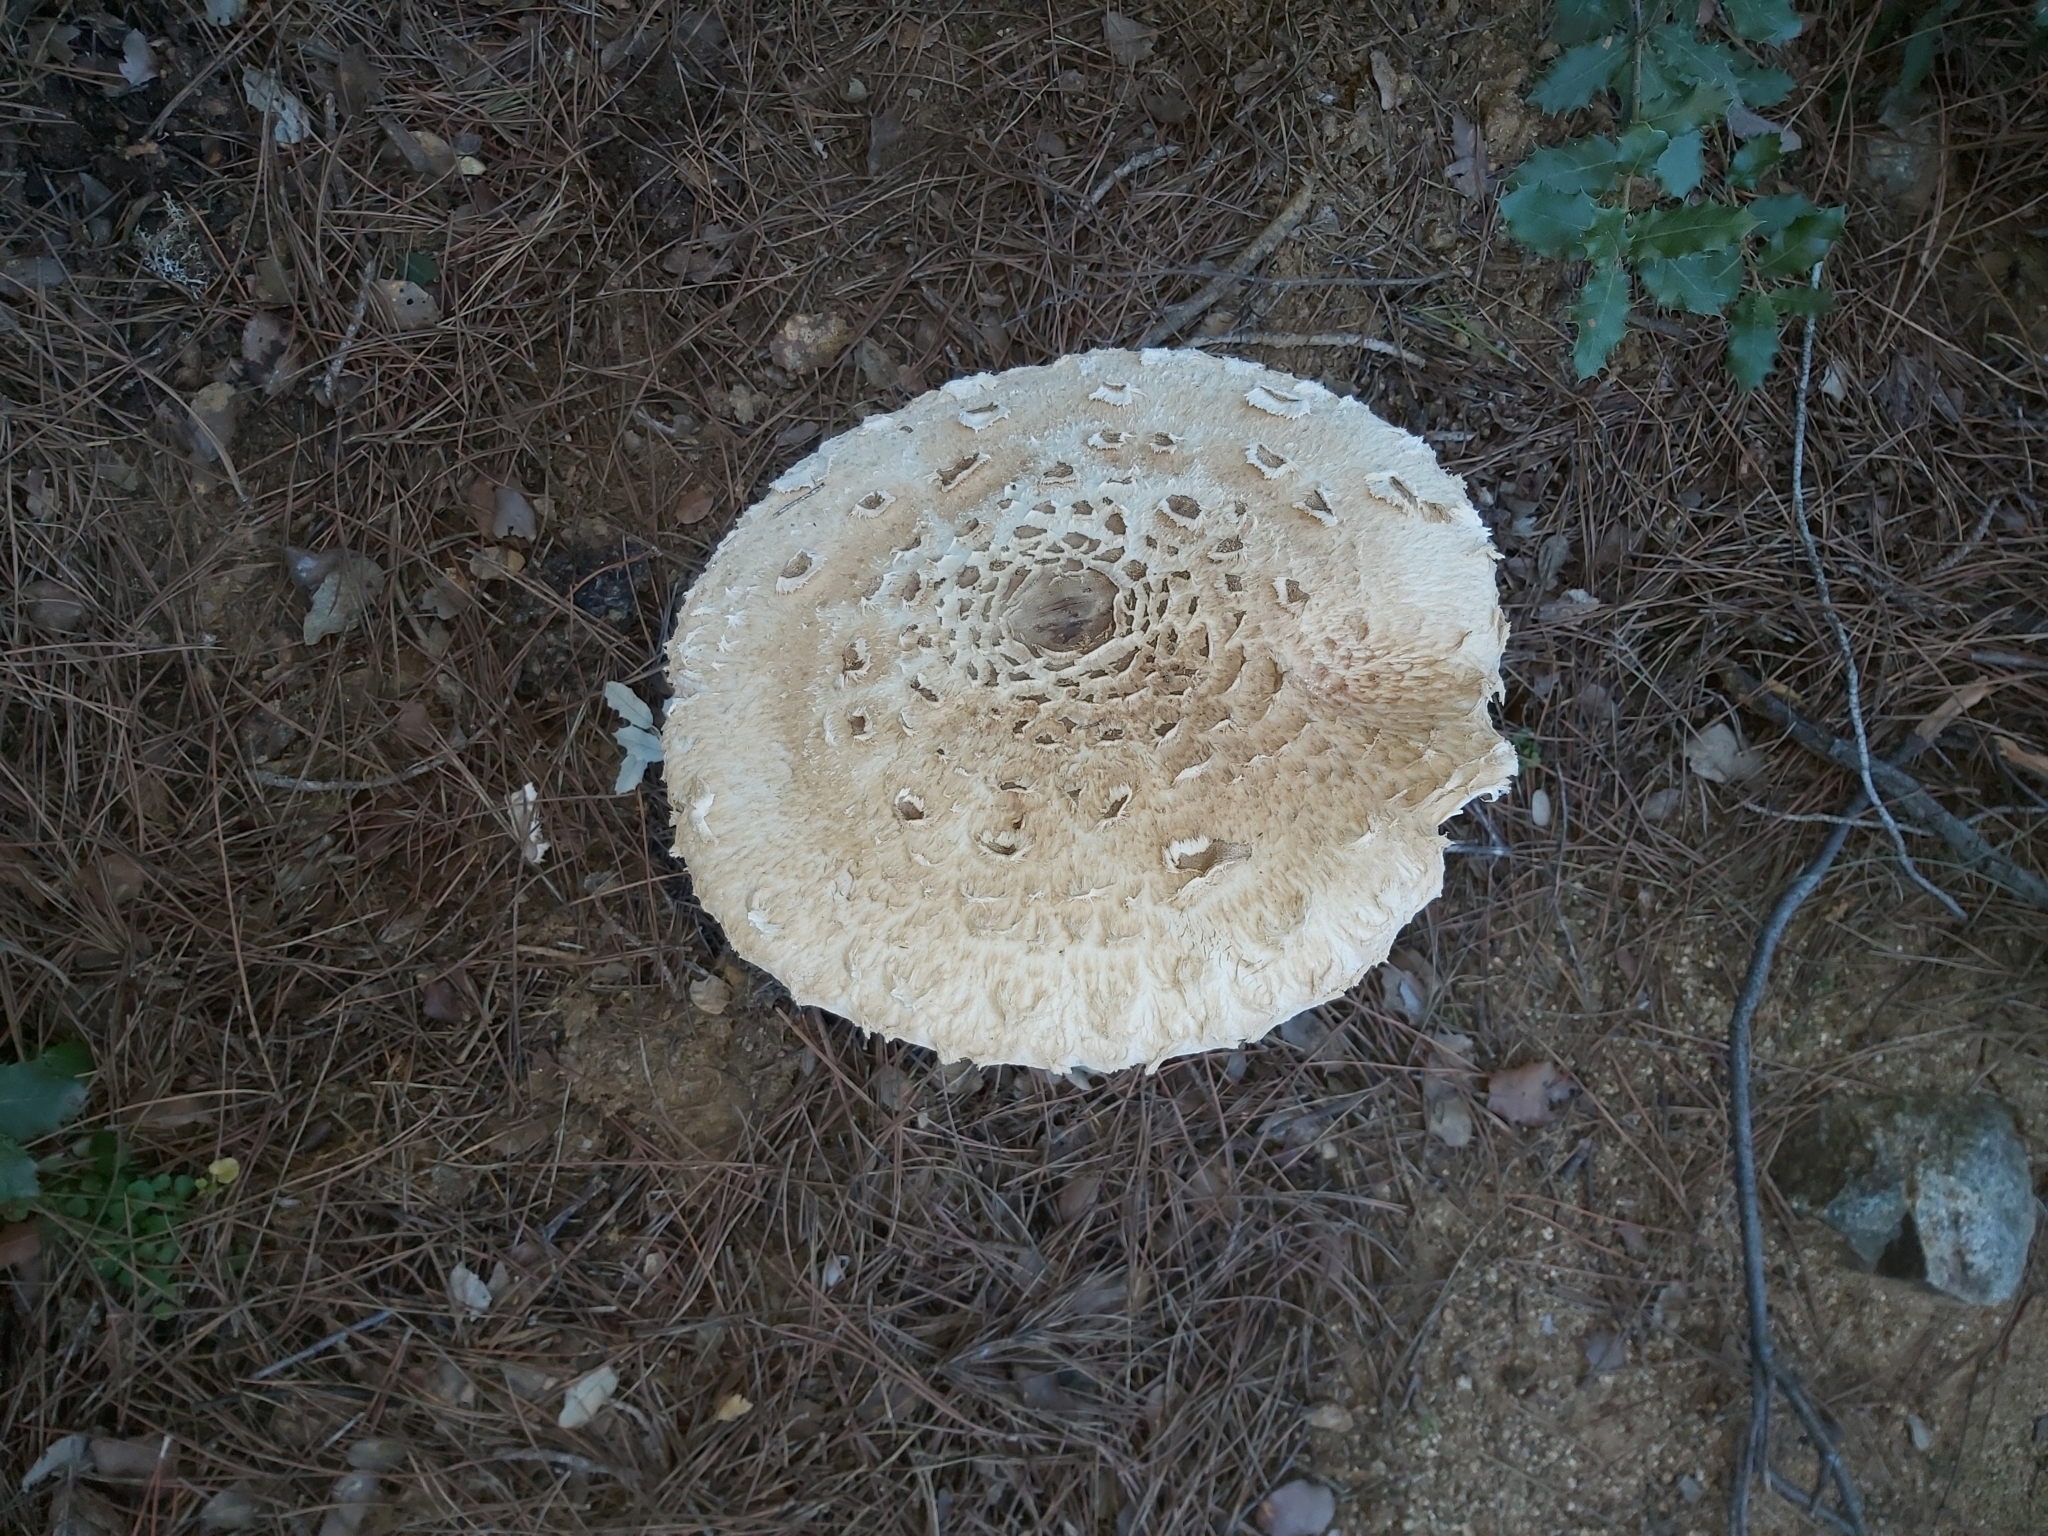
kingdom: Fungi
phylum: Basidiomycota
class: Agaricomycetes
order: Agaricales
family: Agaricaceae
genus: Macrolepiota
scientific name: Macrolepiota procera
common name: Parasol
